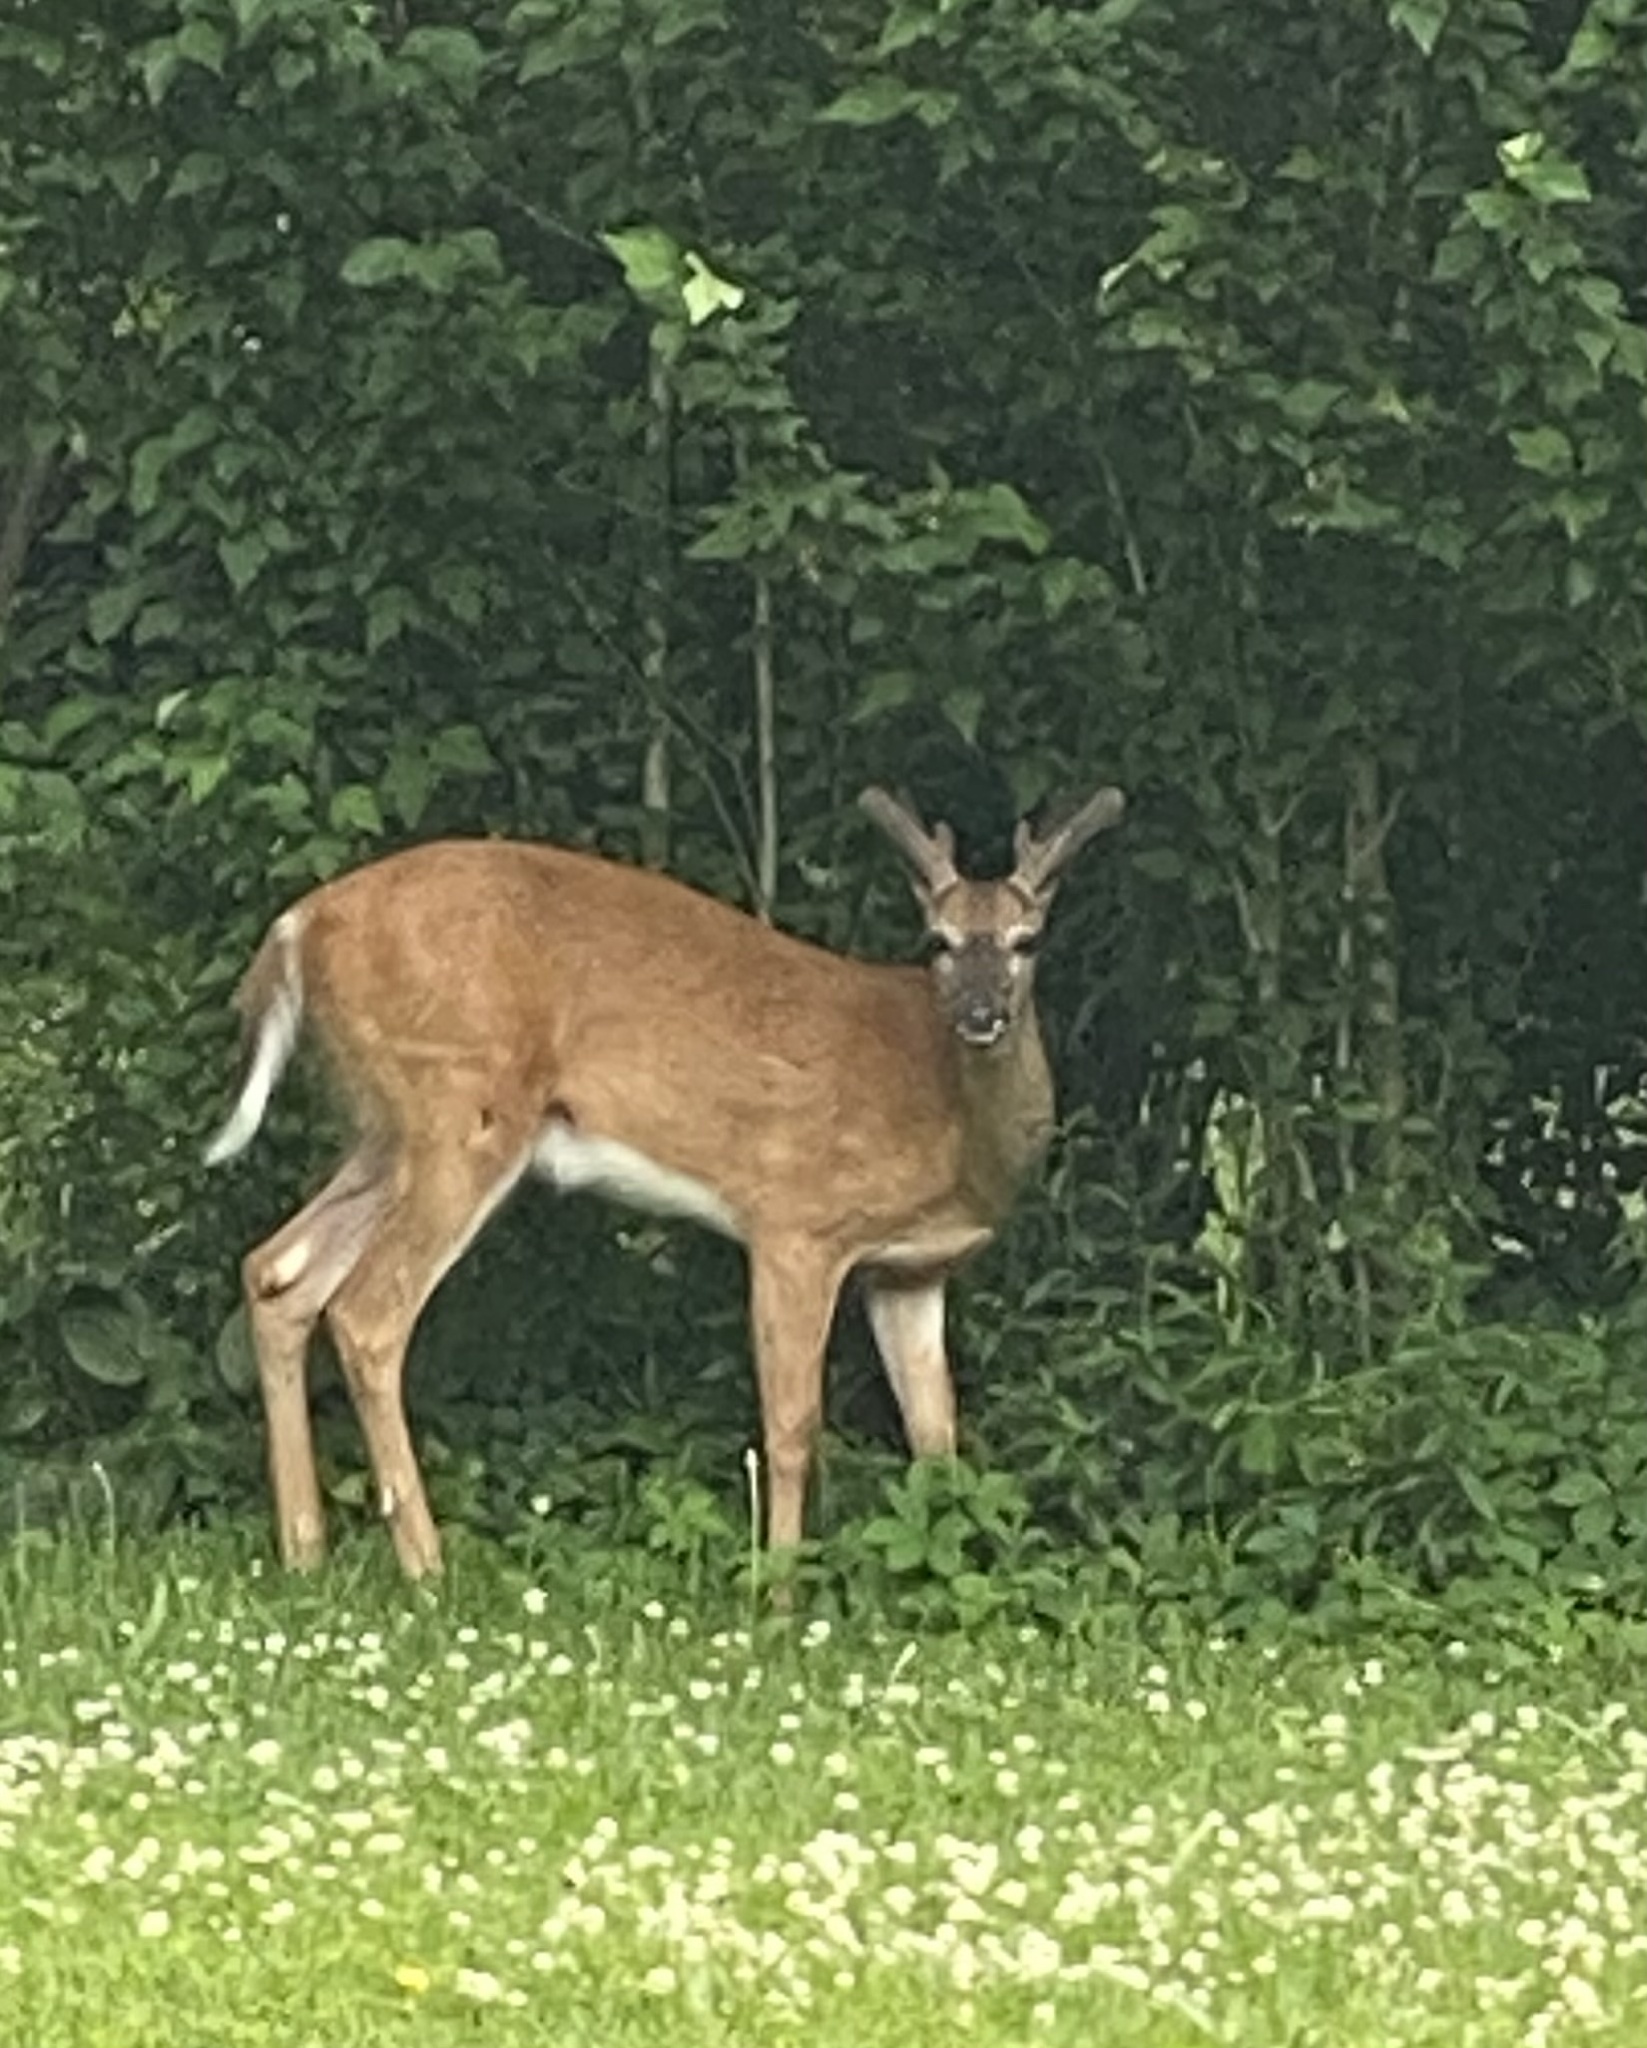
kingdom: Animalia
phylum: Chordata
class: Mammalia
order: Artiodactyla
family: Cervidae
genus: Odocoileus
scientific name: Odocoileus virginianus
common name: White-tailed deer
